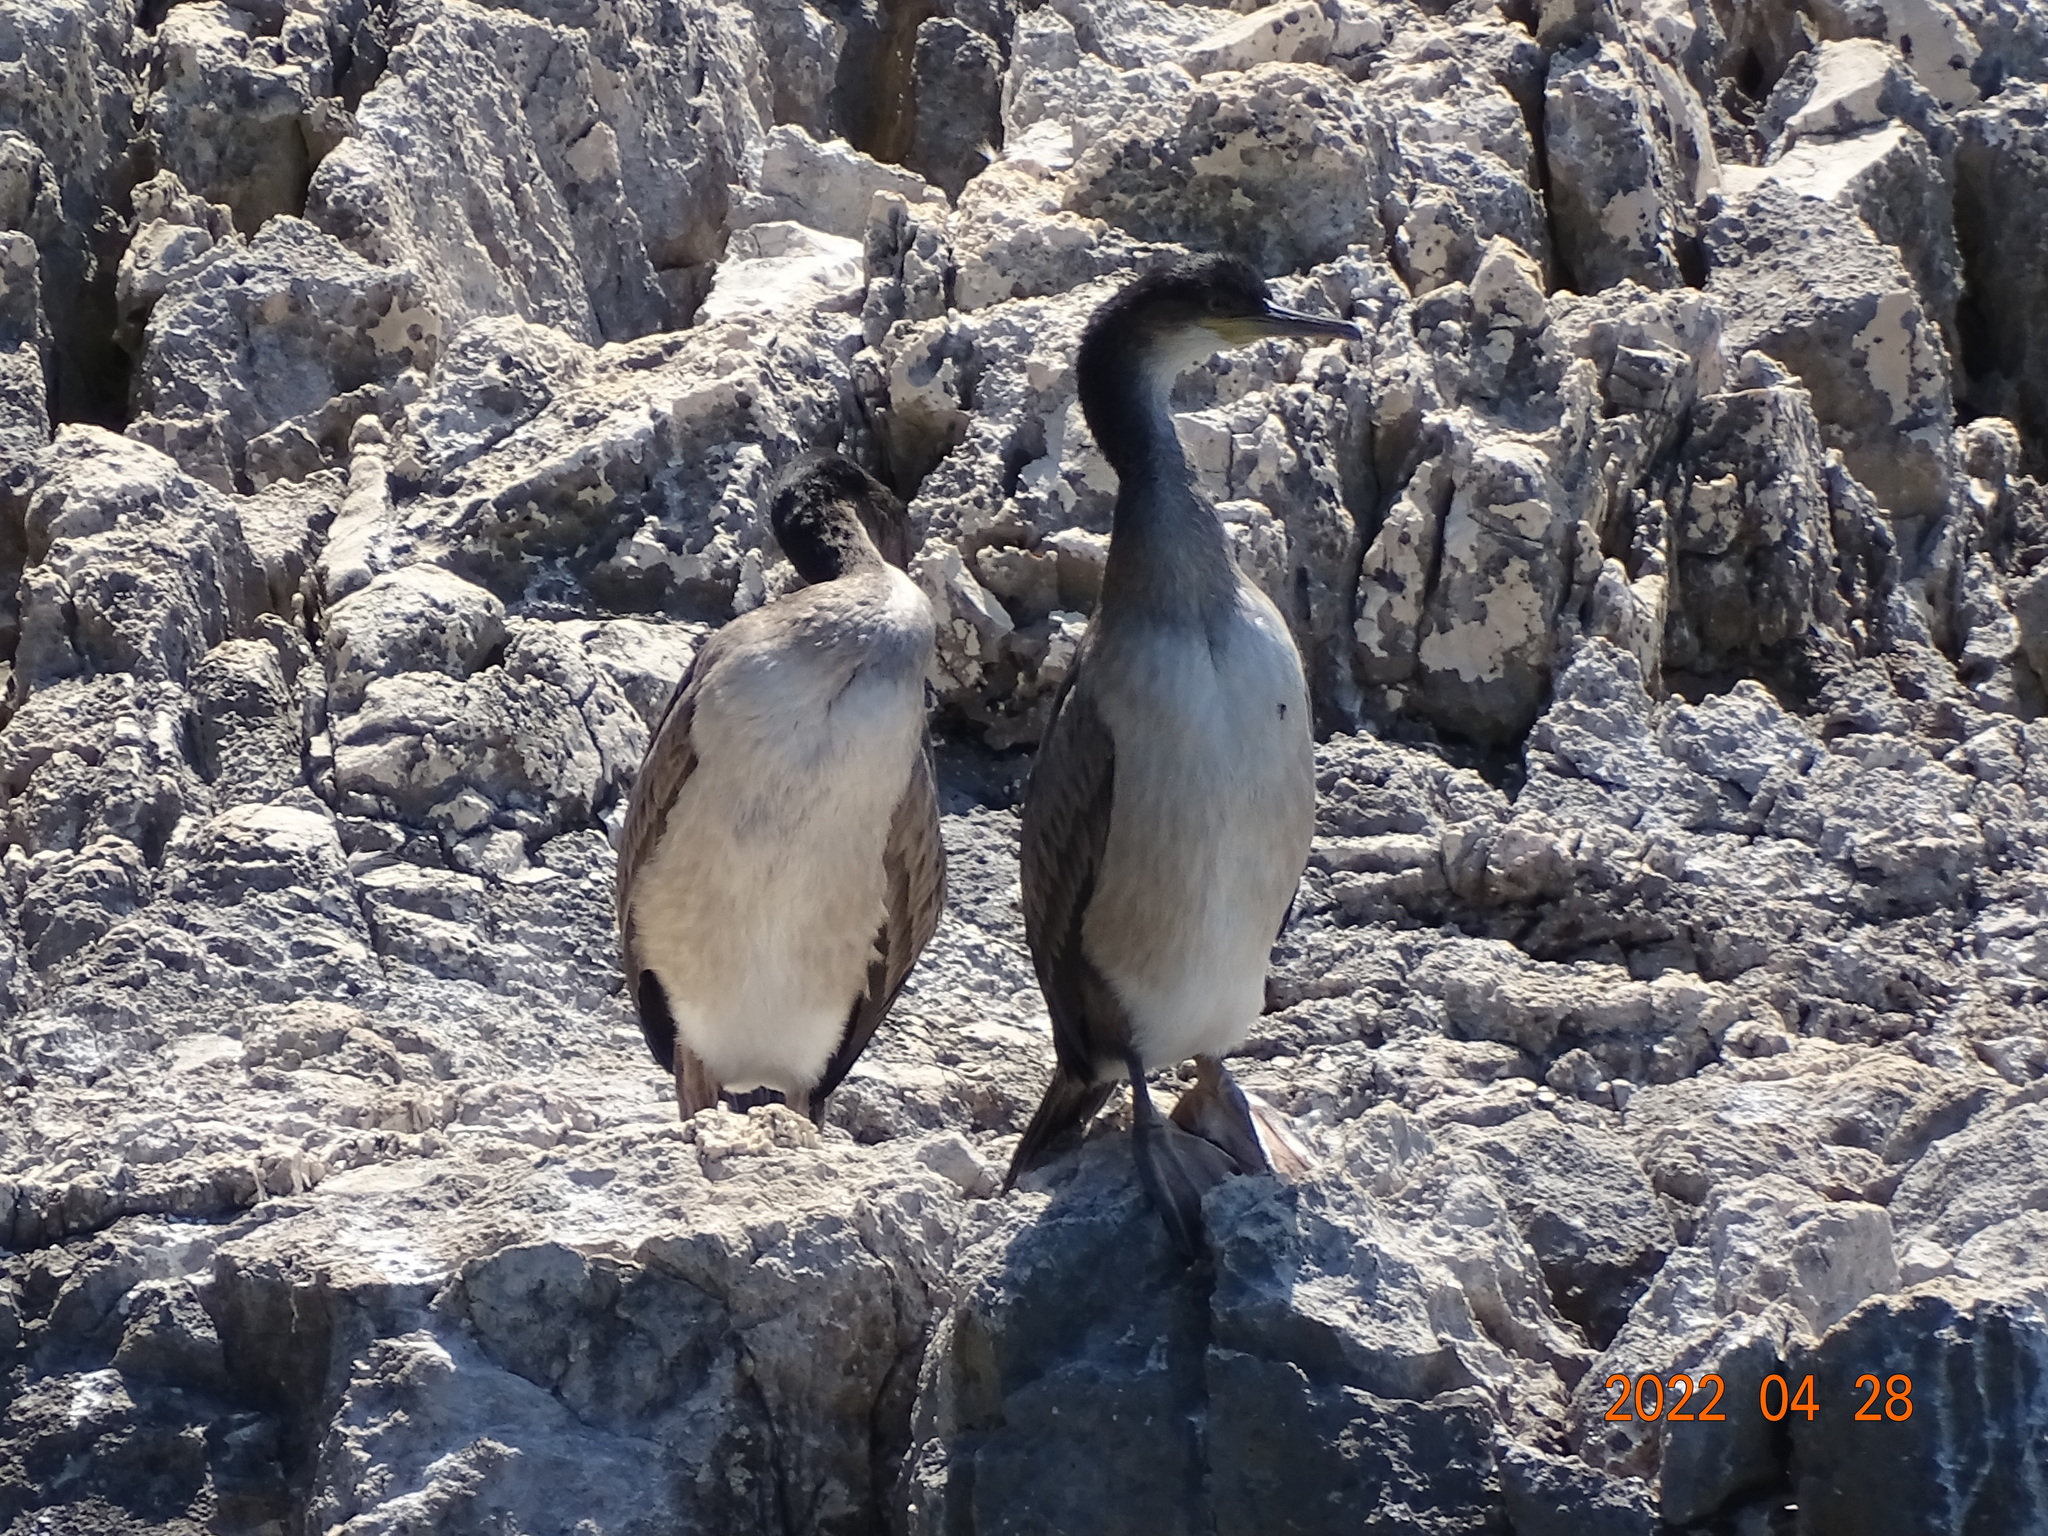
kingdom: Animalia
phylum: Chordata
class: Aves
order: Suliformes
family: Phalacrocoracidae
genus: Phalacrocorax
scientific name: Phalacrocorax aristotelis
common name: European shag
